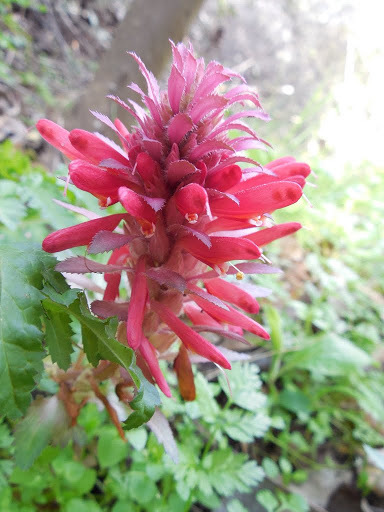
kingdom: Plantae
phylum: Tracheophyta
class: Magnoliopsida
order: Lamiales
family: Orobanchaceae
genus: Pedicularis
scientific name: Pedicularis densiflora
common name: Indian warrior
